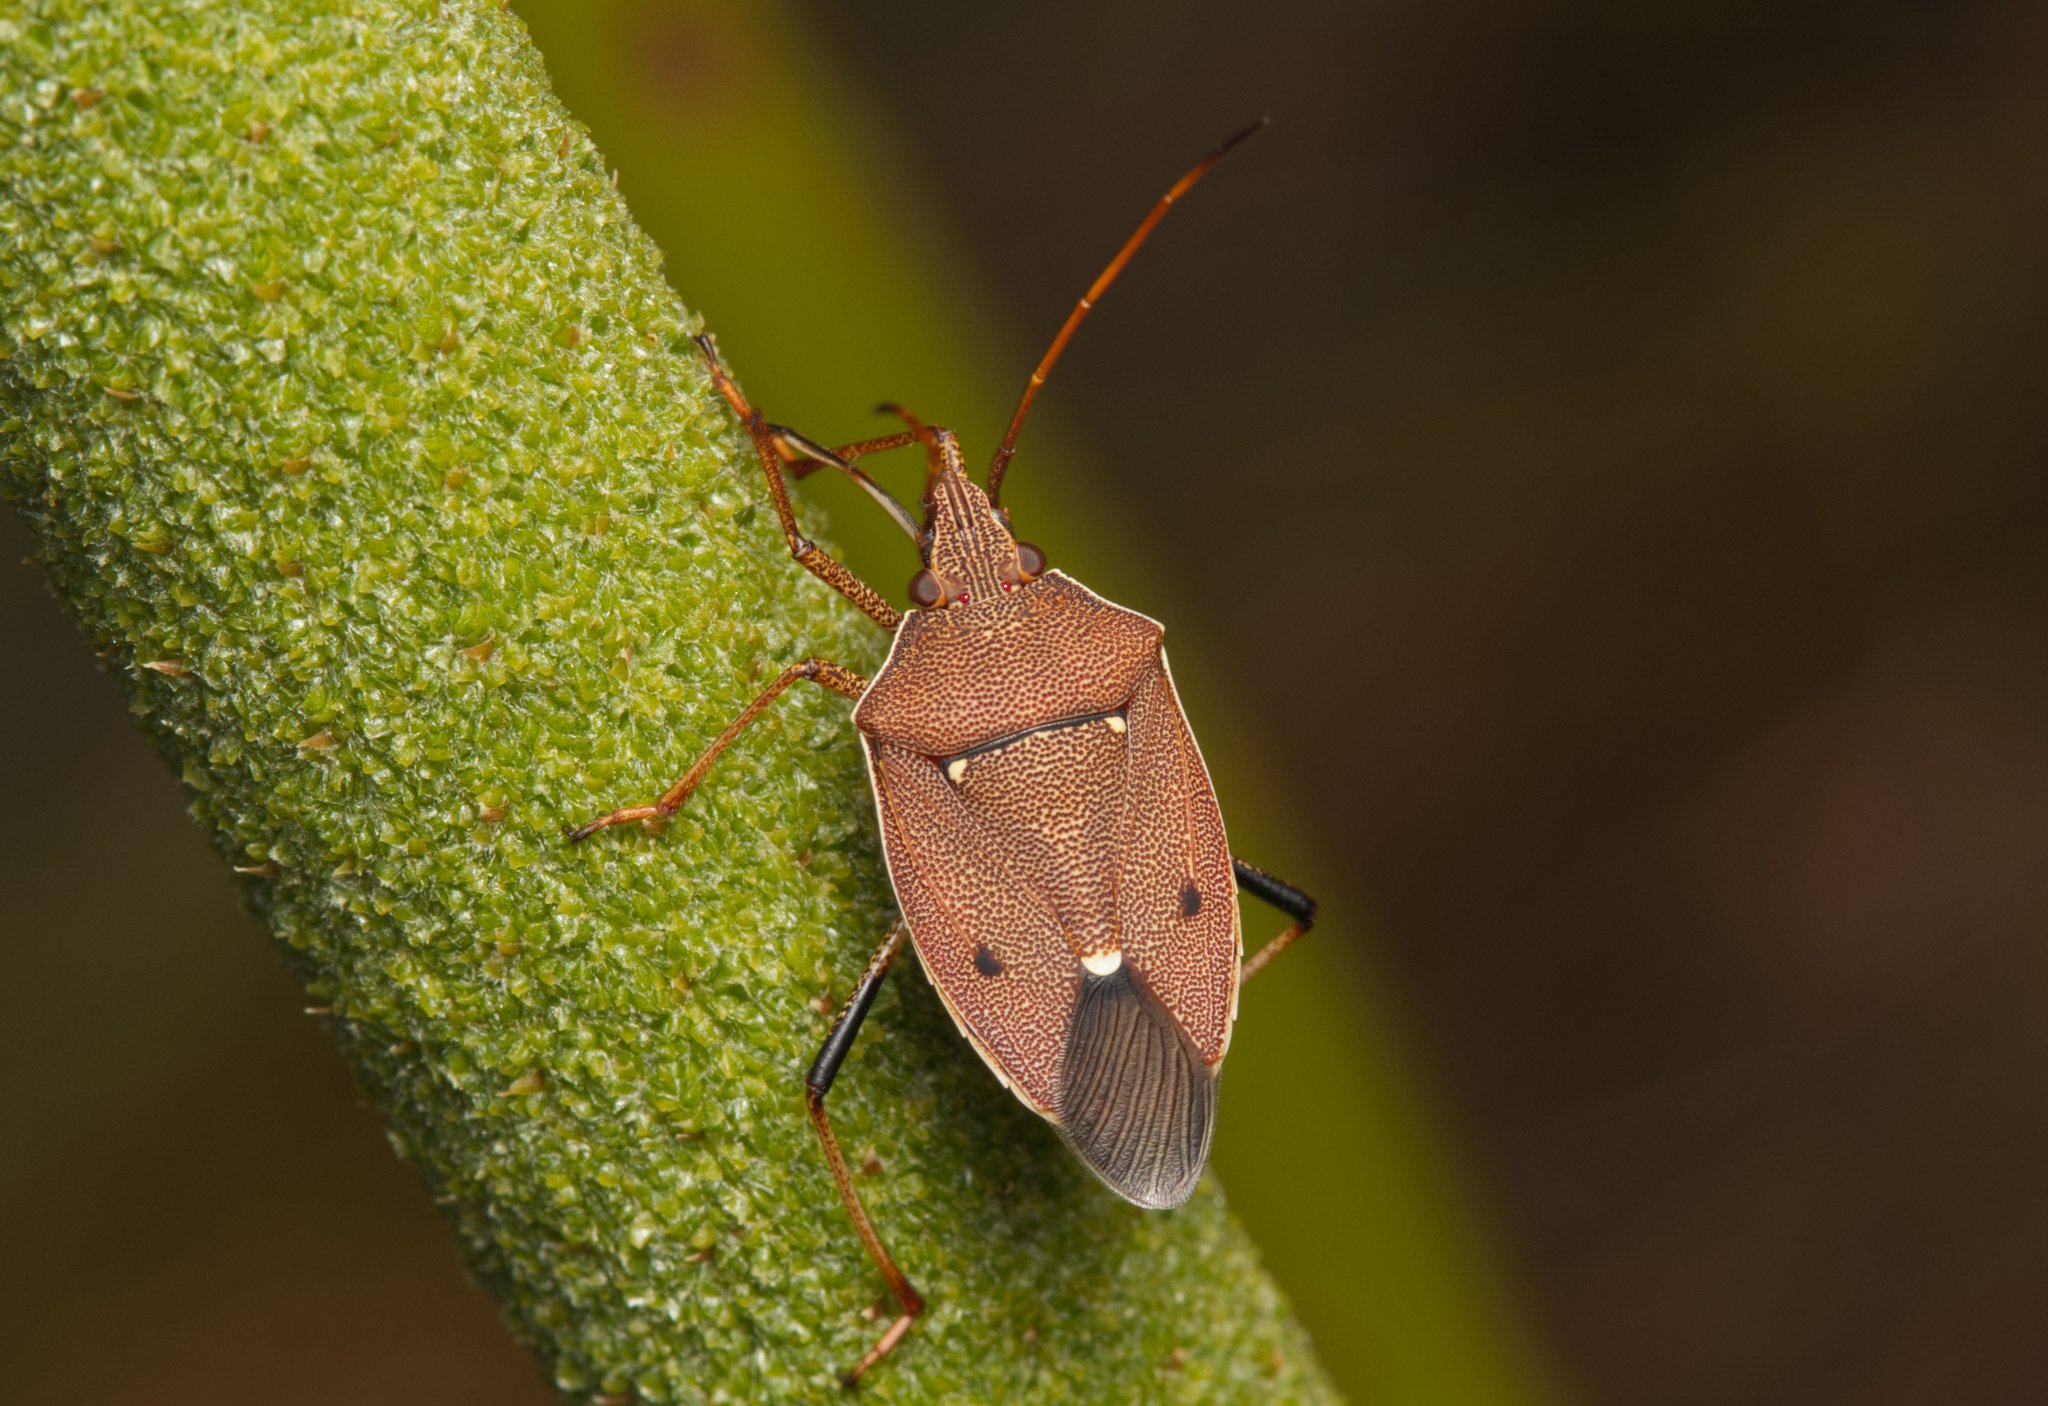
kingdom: Animalia
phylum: Arthropoda
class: Insecta
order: Hemiptera
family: Pentatomidae
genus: Poecilometis
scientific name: Poecilometis
